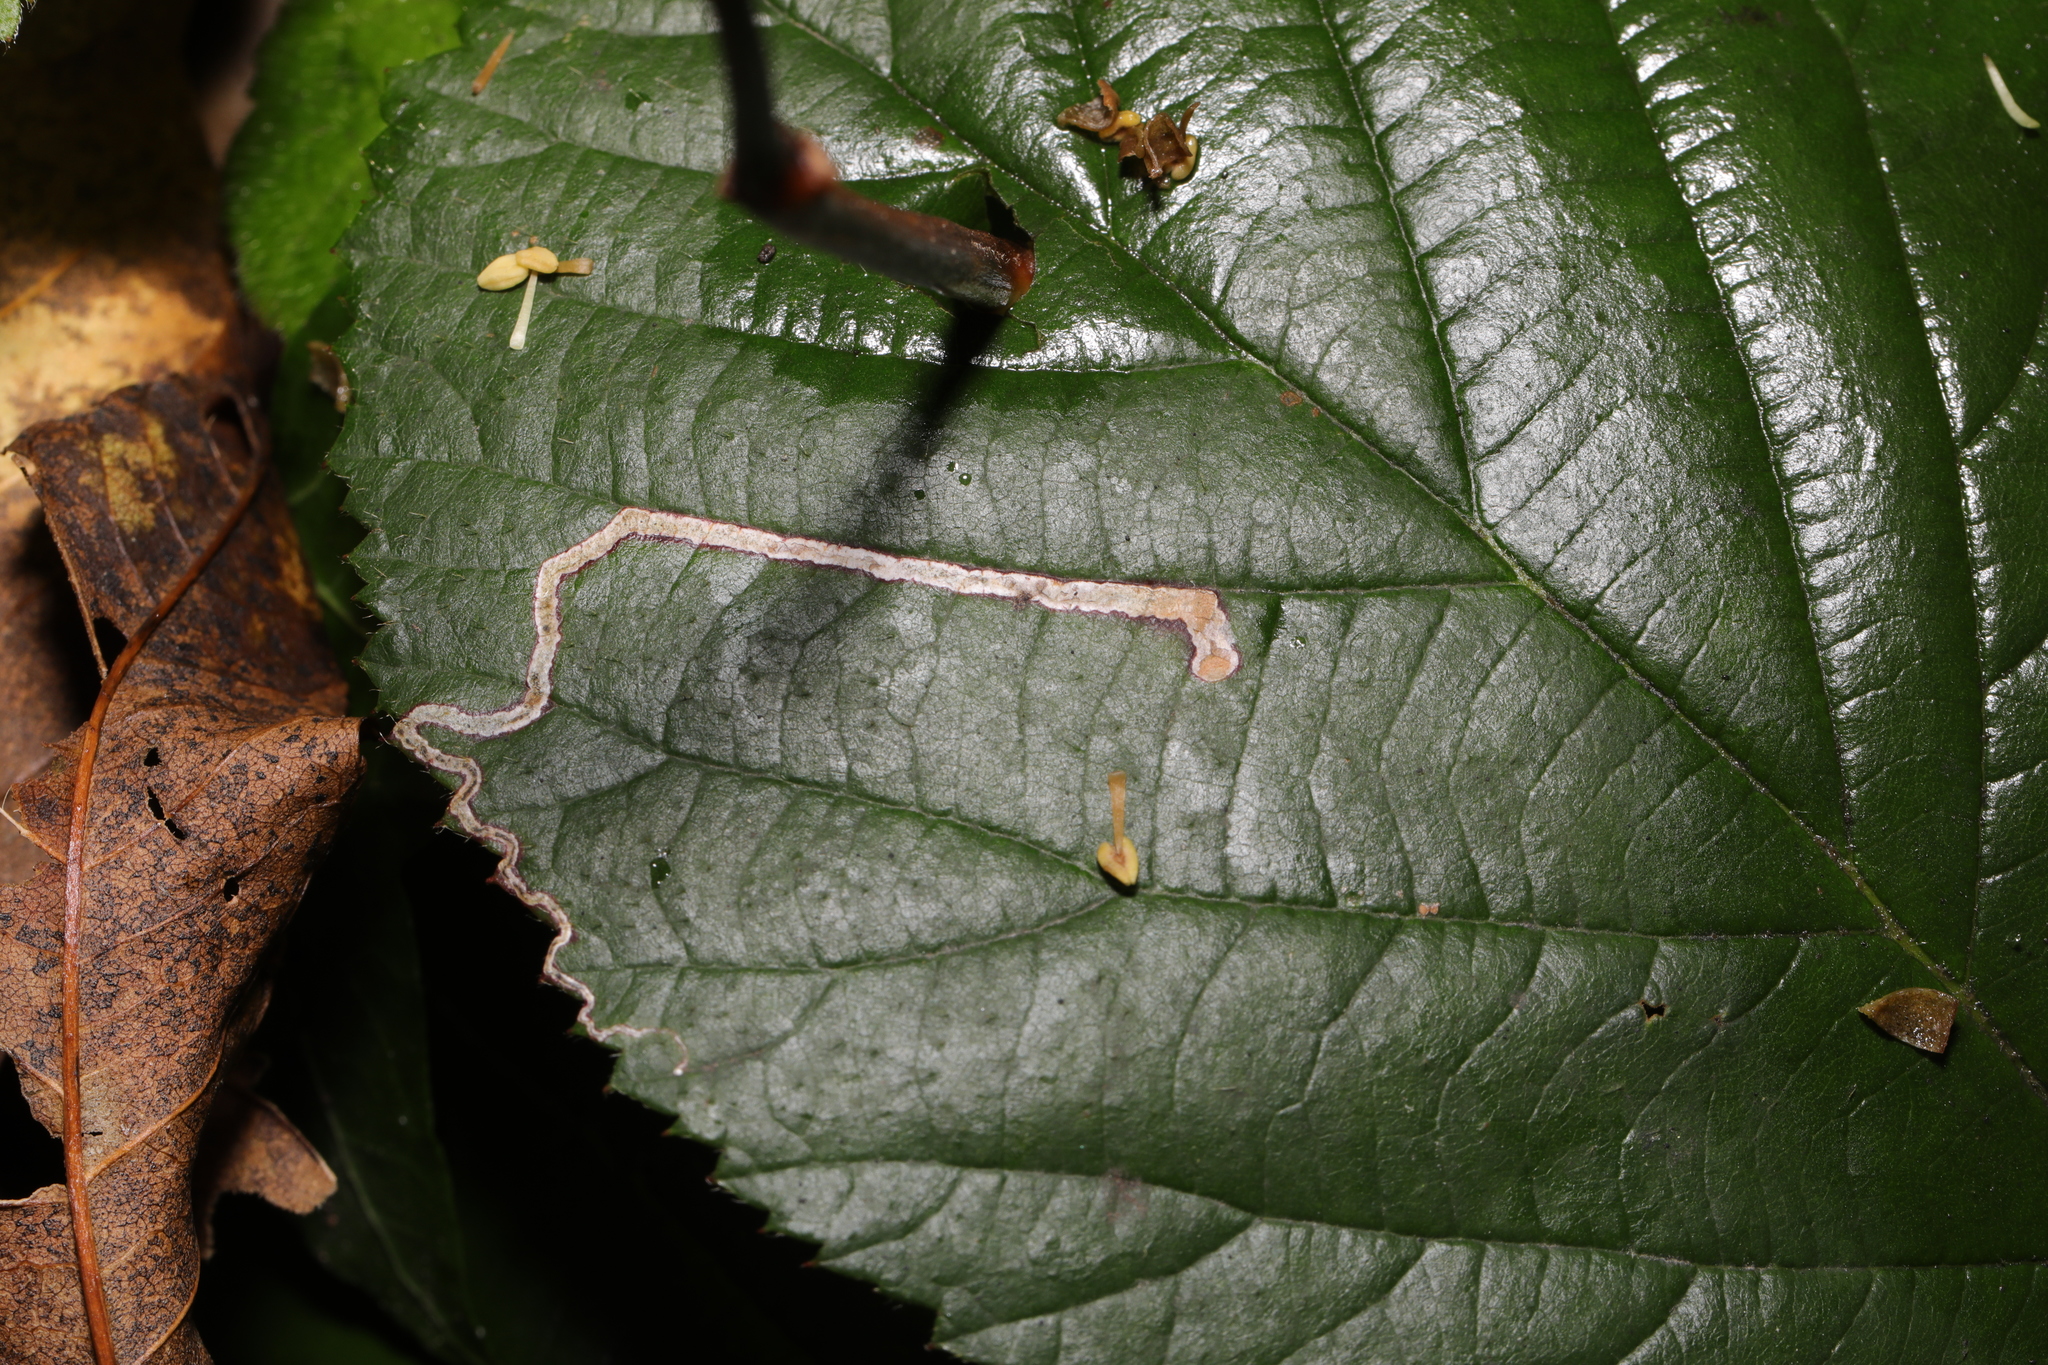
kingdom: Animalia
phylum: Arthropoda
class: Insecta
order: Lepidoptera
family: Nepticulidae
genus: Stigmella
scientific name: Stigmella aurella
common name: Golden pigmy
